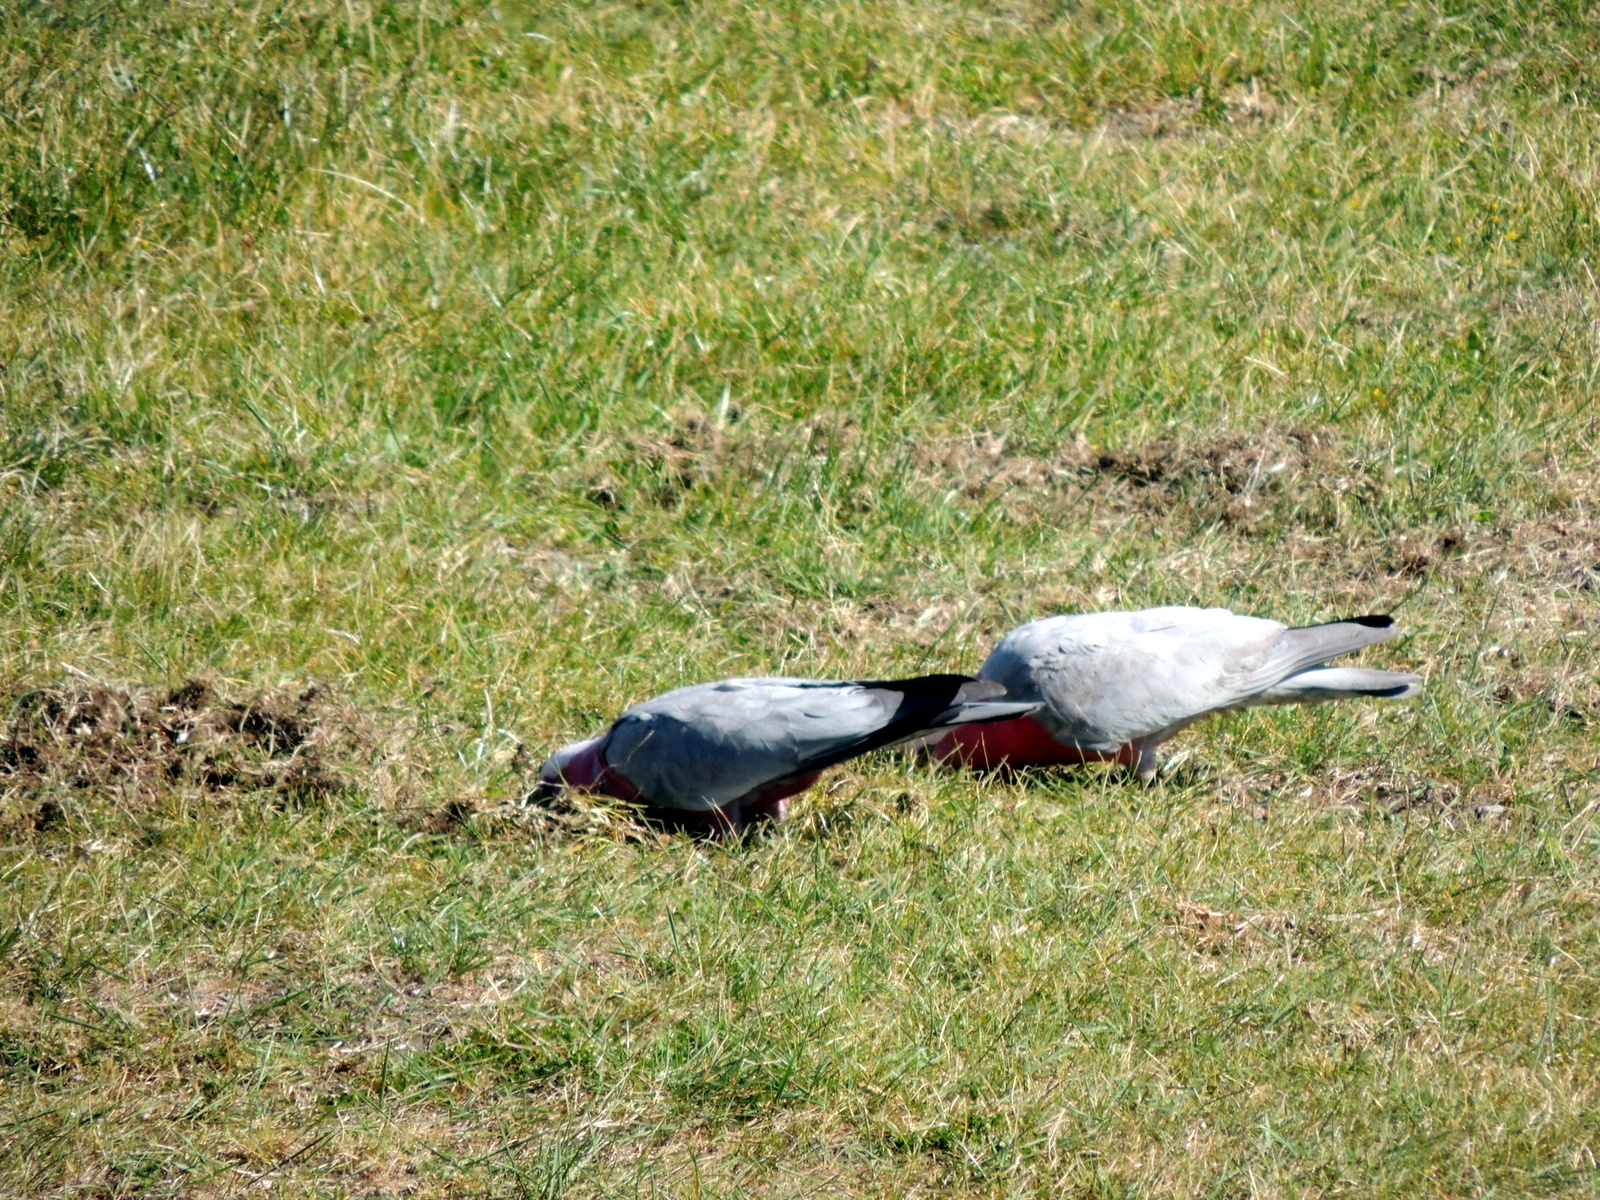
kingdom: Animalia
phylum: Chordata
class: Aves
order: Psittaciformes
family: Psittacidae
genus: Eolophus
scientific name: Eolophus roseicapilla
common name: Galah
